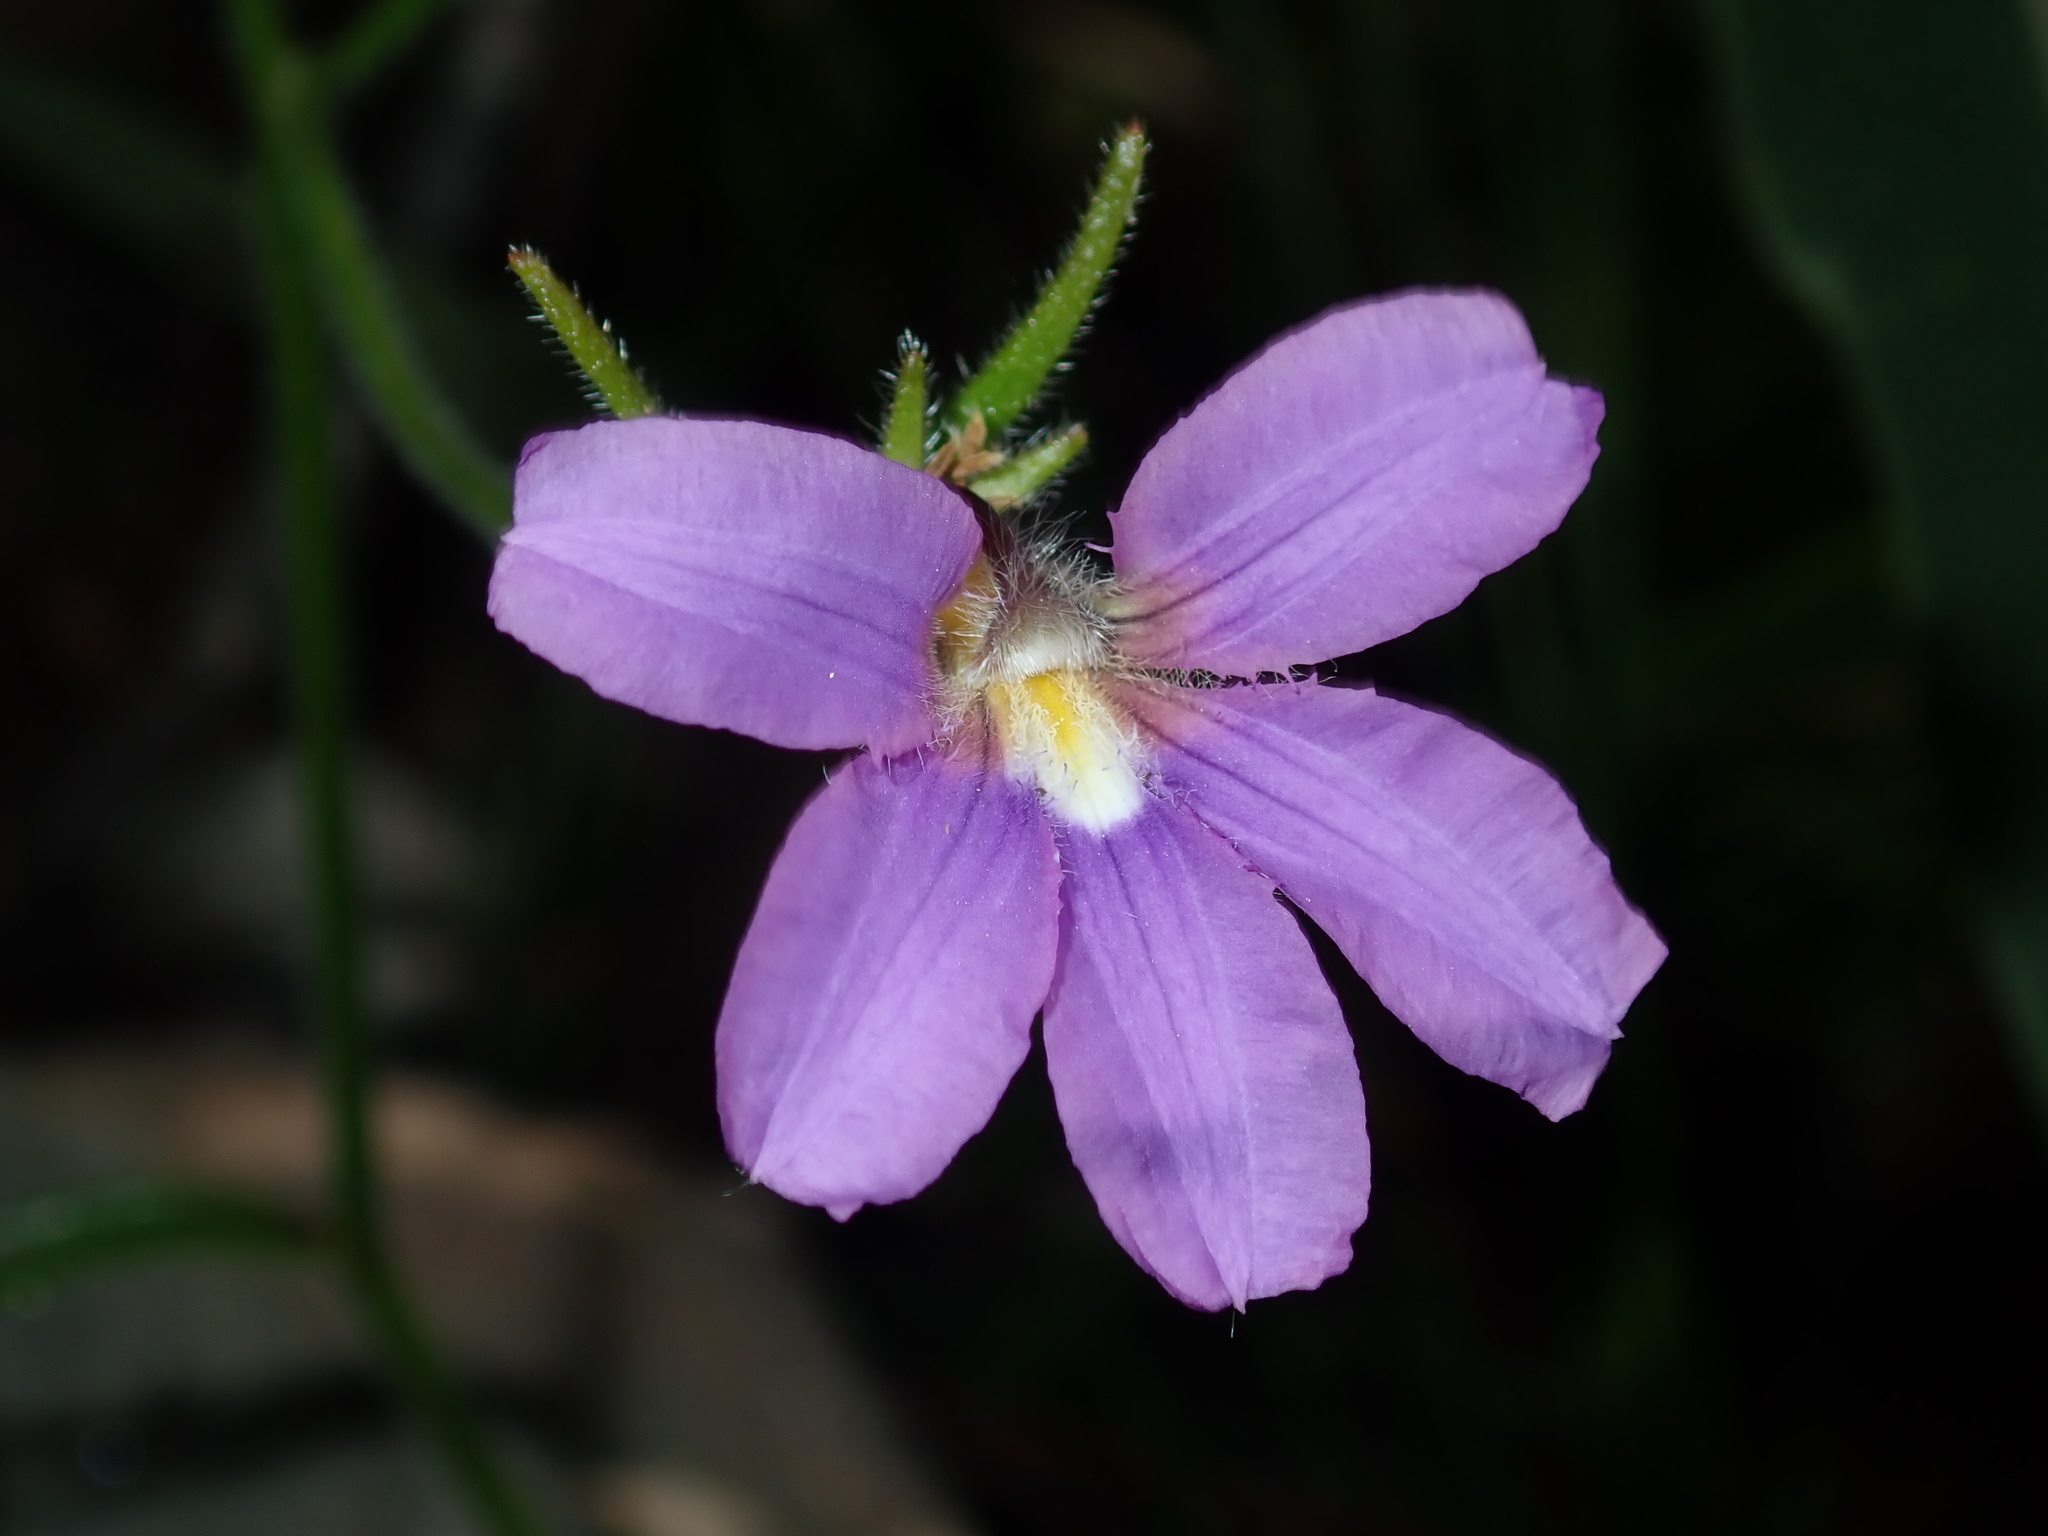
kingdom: Plantae
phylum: Tracheophyta
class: Magnoliopsida
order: Asterales
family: Goodeniaceae
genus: Scaevola
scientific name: Scaevola ramosissima
